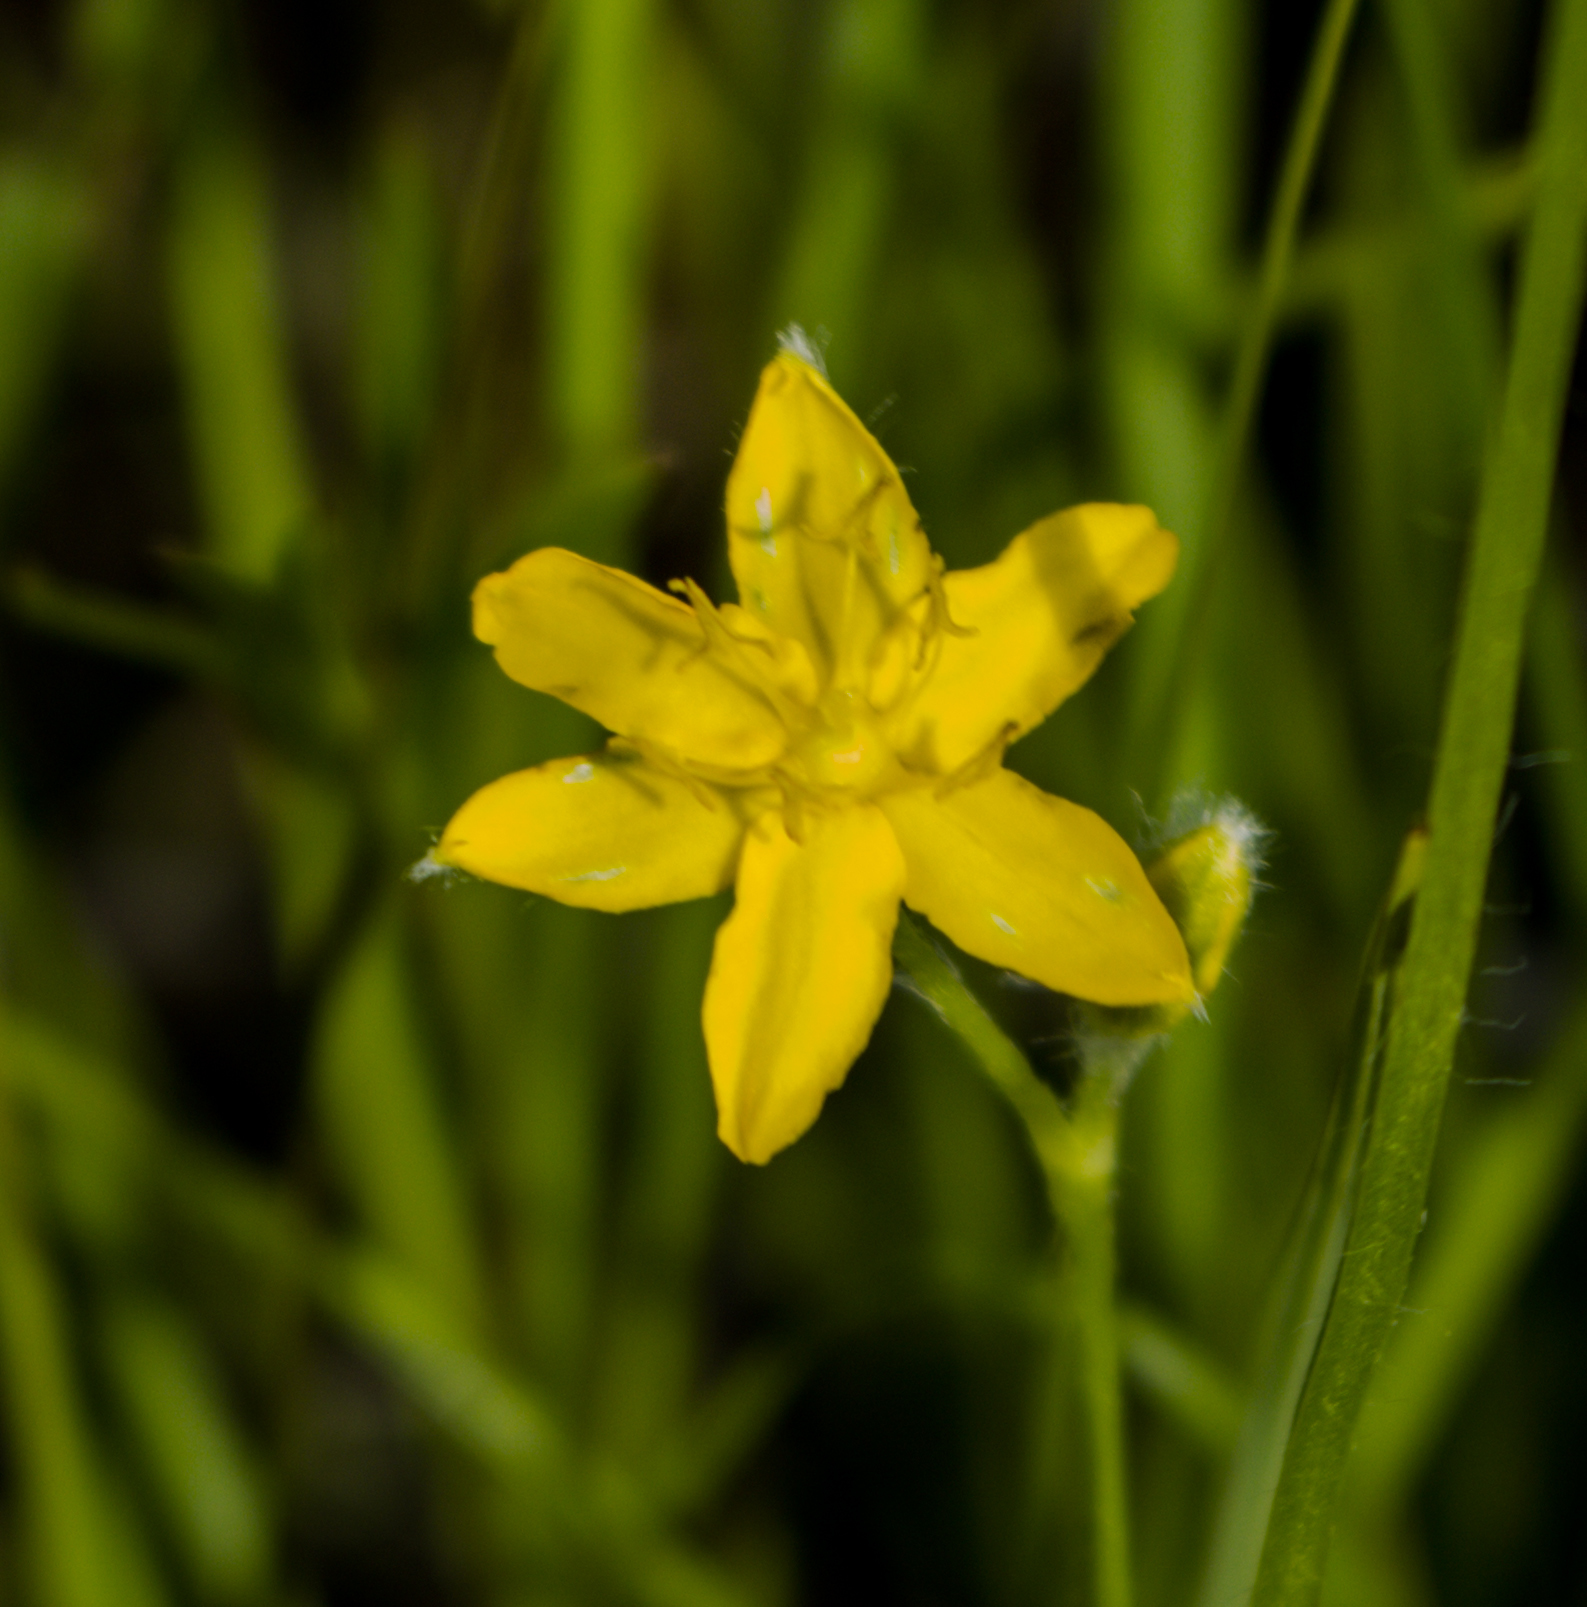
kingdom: Plantae
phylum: Tracheophyta
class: Liliopsida
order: Asparagales
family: Hypoxidaceae
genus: Hypoxis
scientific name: Hypoxis hirsuta
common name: Common goldstar
